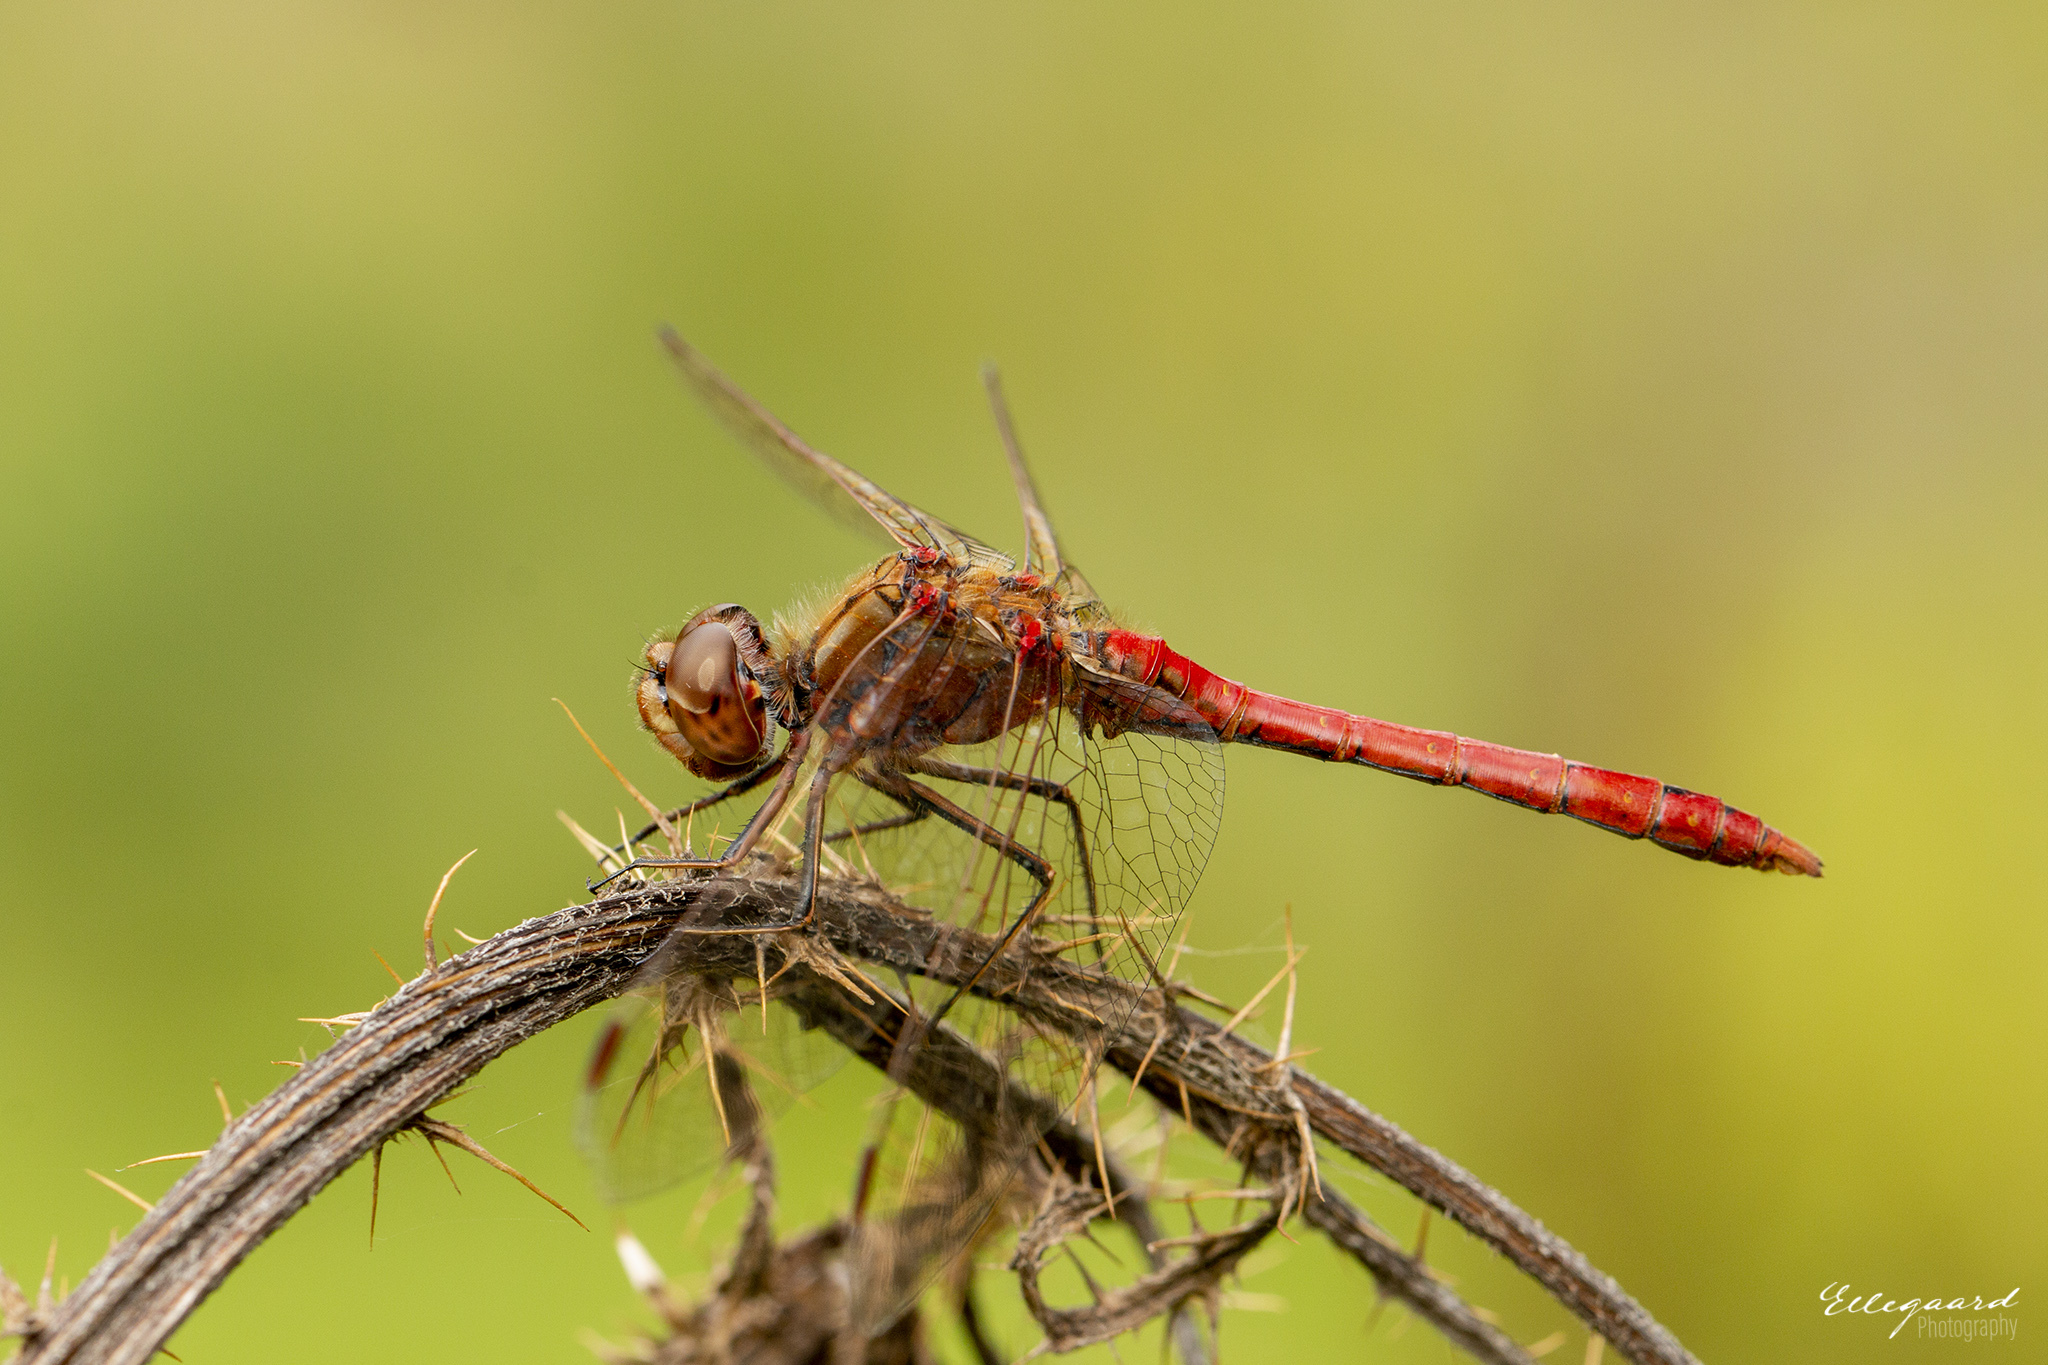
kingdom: Animalia
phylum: Arthropoda
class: Insecta
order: Odonata
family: Libellulidae
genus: Sympetrum
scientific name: Sympetrum vulgatum
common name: Vagrant darter
